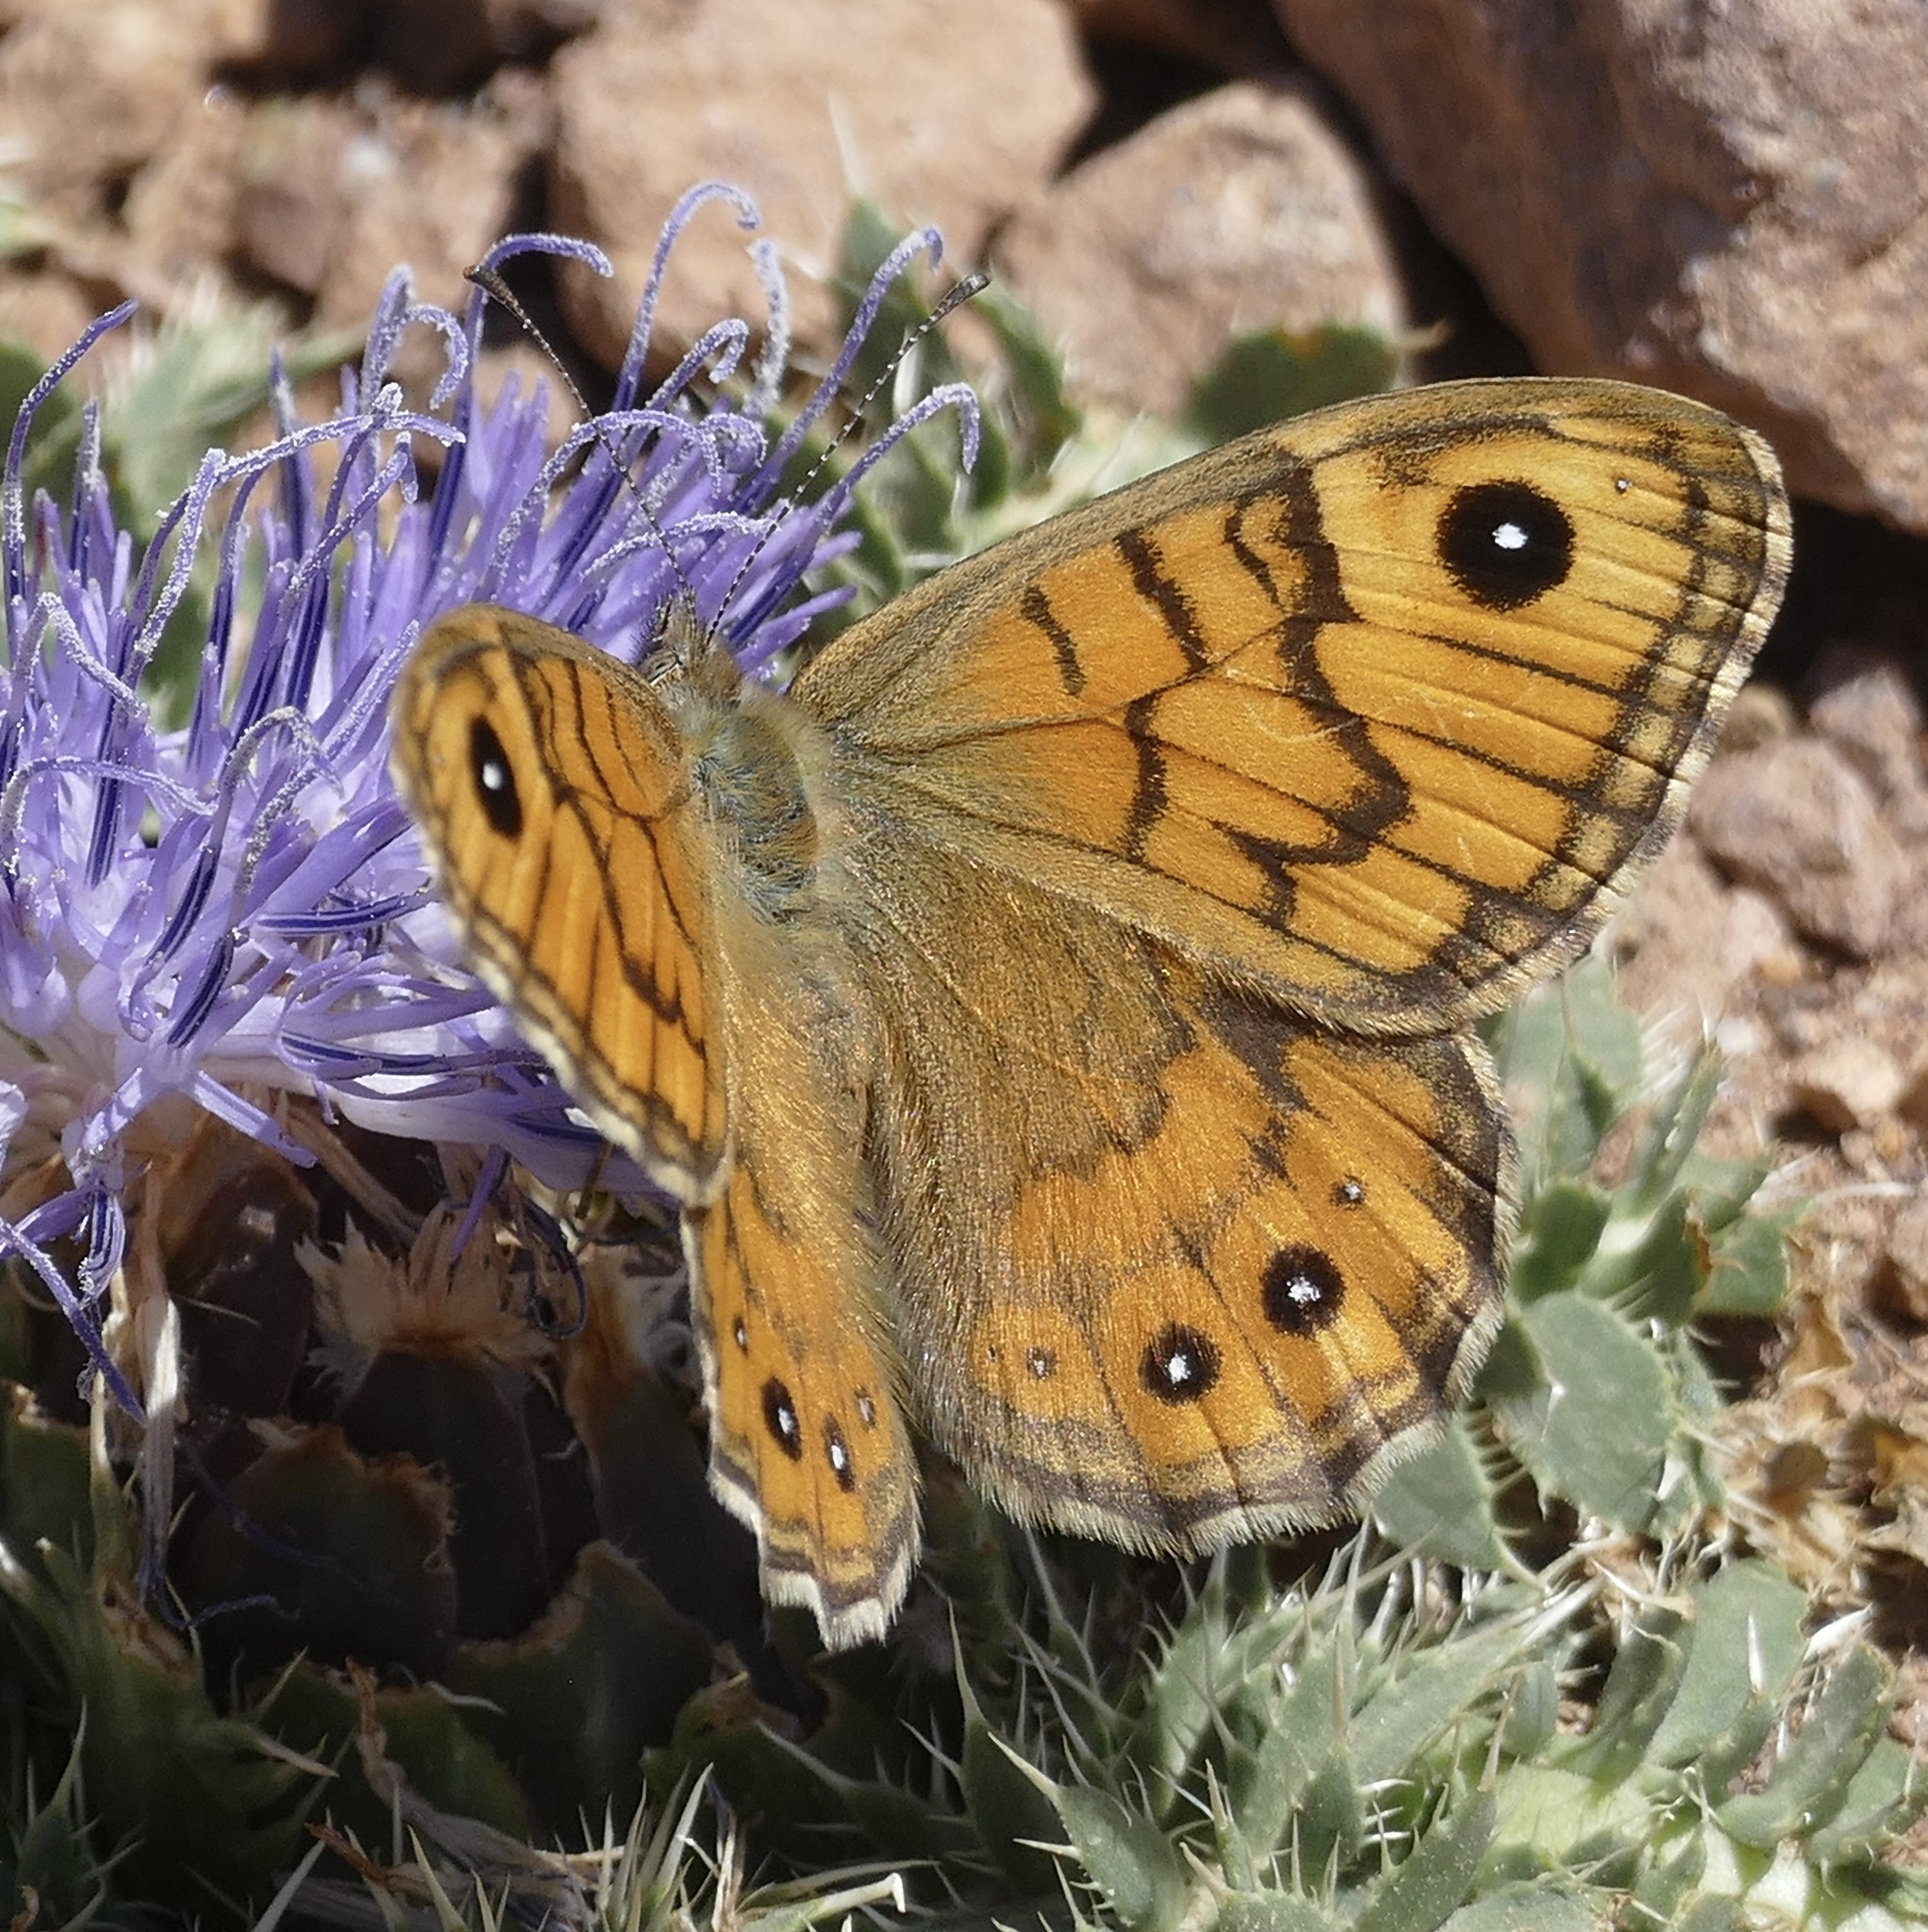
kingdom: Animalia
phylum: Arthropoda
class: Insecta
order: Lepidoptera
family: Nymphalidae
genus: Pararge
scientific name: Pararge Lasiommata megera
